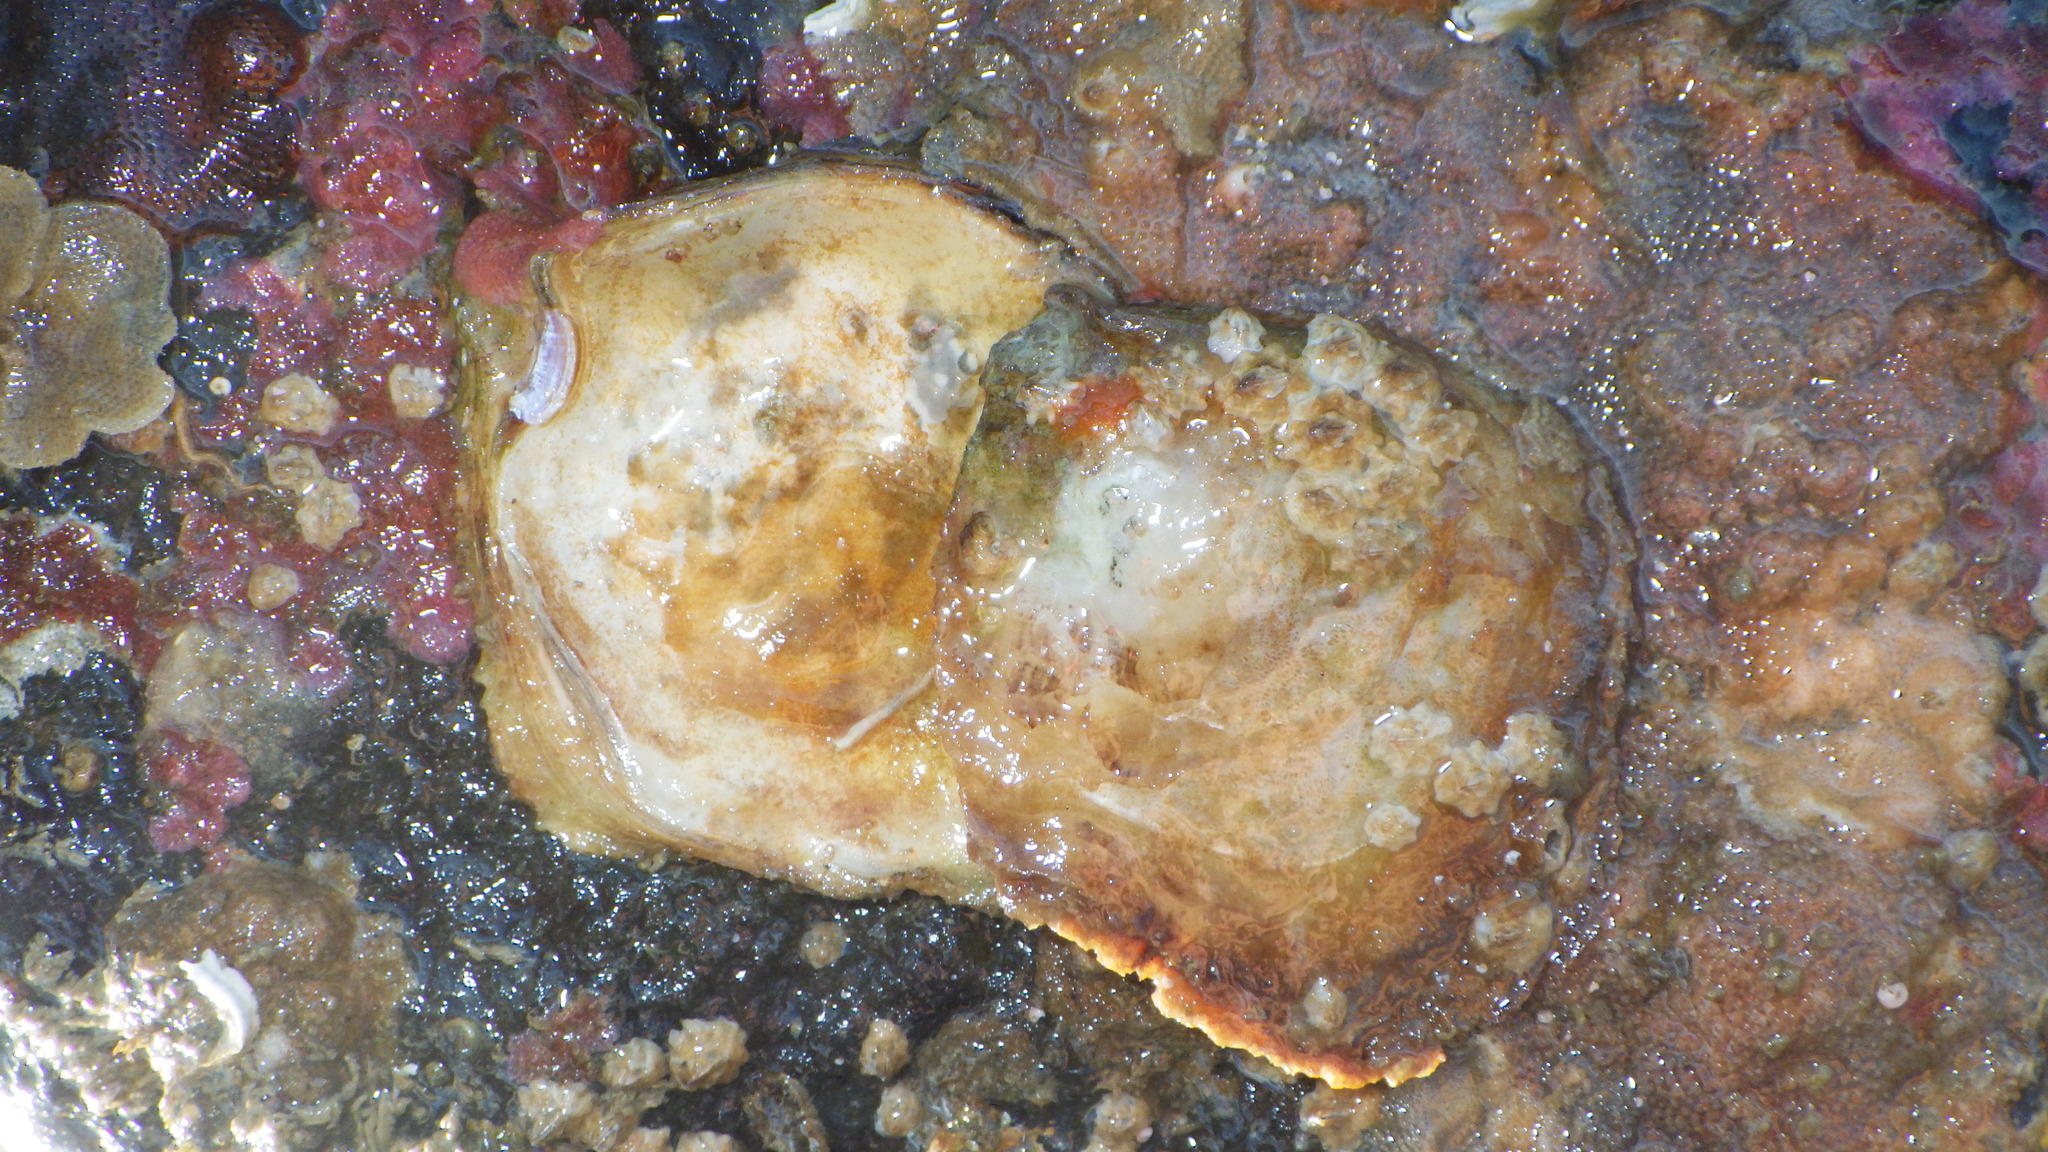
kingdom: Animalia
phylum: Mollusca
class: Bivalvia
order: Ostreida
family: Ostreidae
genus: Ostrea
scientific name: Ostrea chilensis
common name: Chilean oyster
